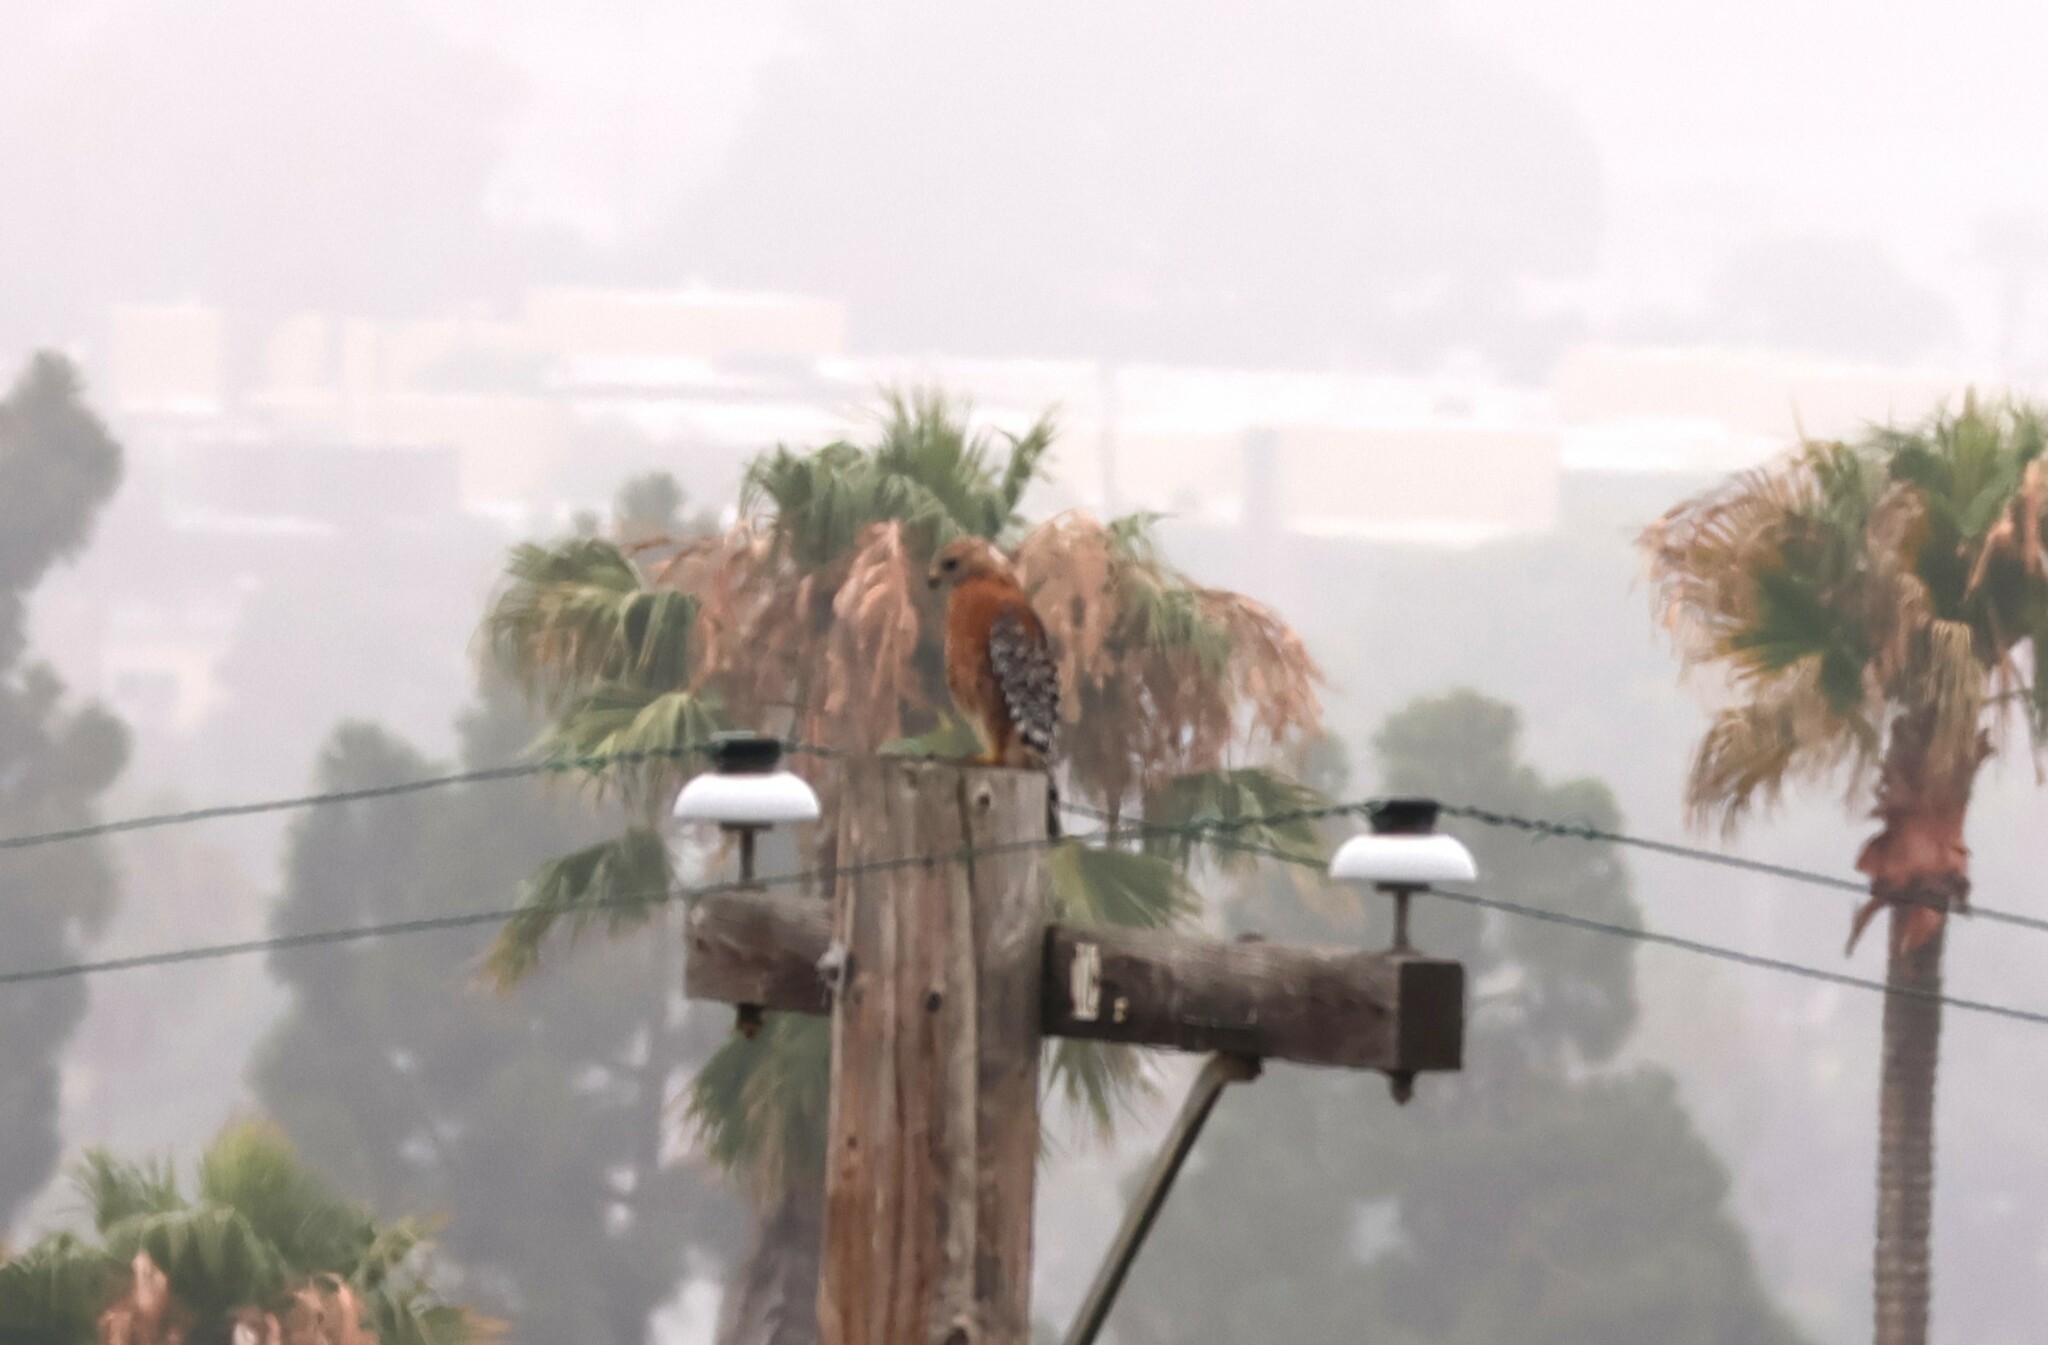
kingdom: Animalia
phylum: Chordata
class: Aves
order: Accipitriformes
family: Accipitridae
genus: Buteo
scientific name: Buteo lineatus
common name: Red-shouldered hawk
